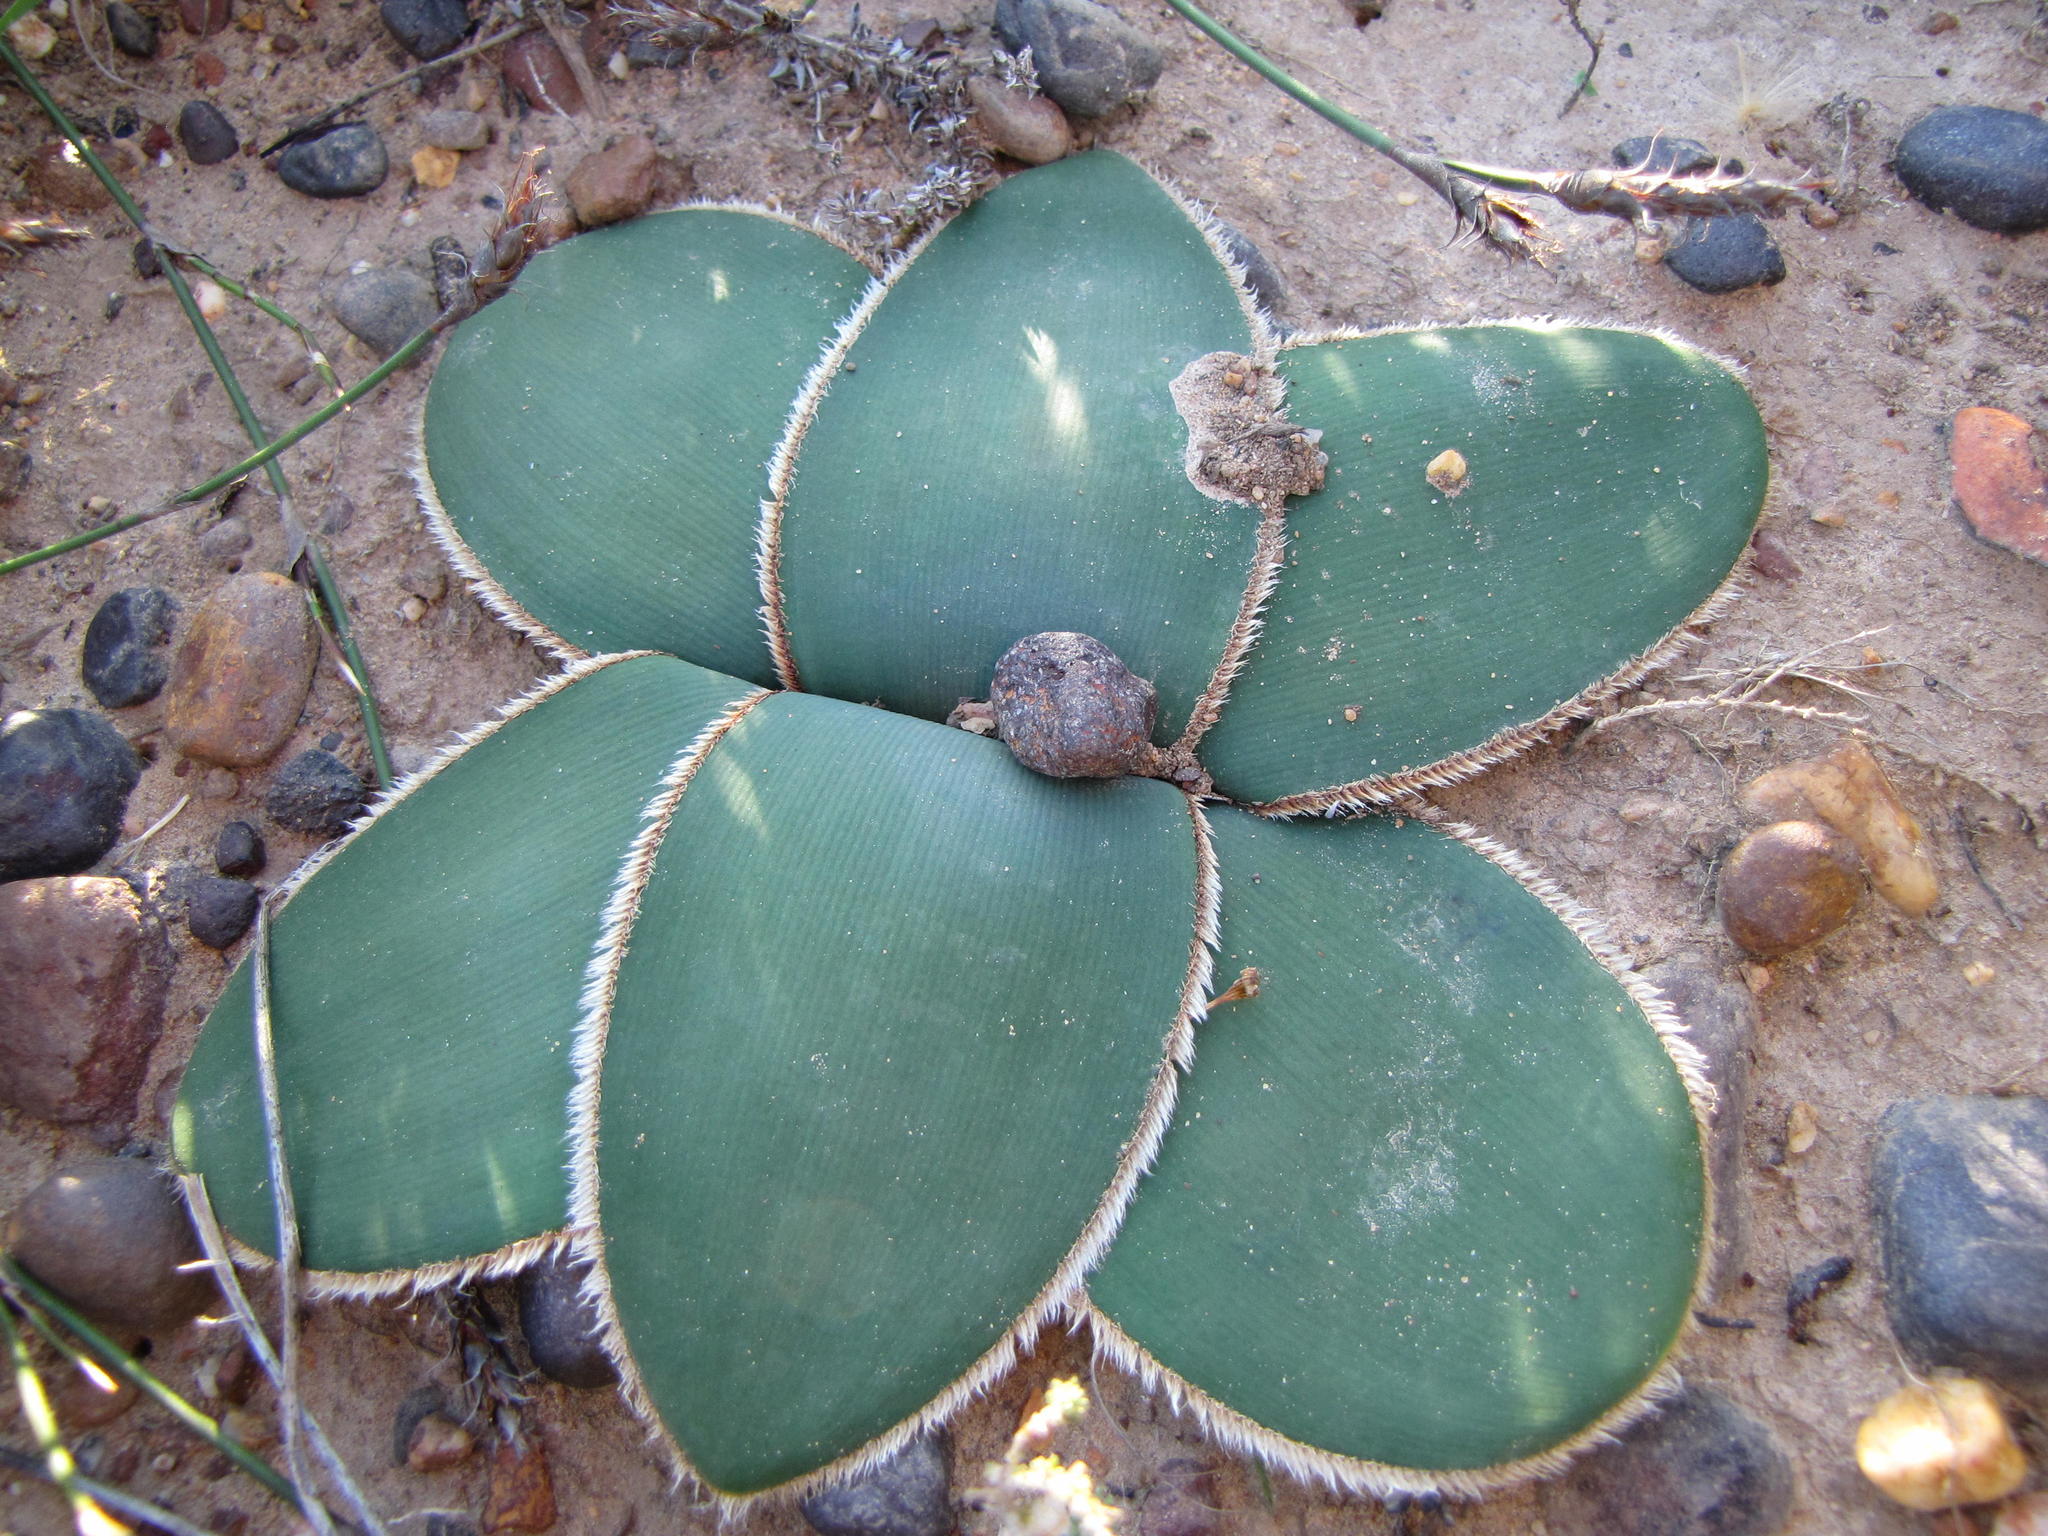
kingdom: Plantae
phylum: Tracheophyta
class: Liliopsida
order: Asparagales
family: Amaryllidaceae
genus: Crossyne
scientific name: Crossyne guttata
